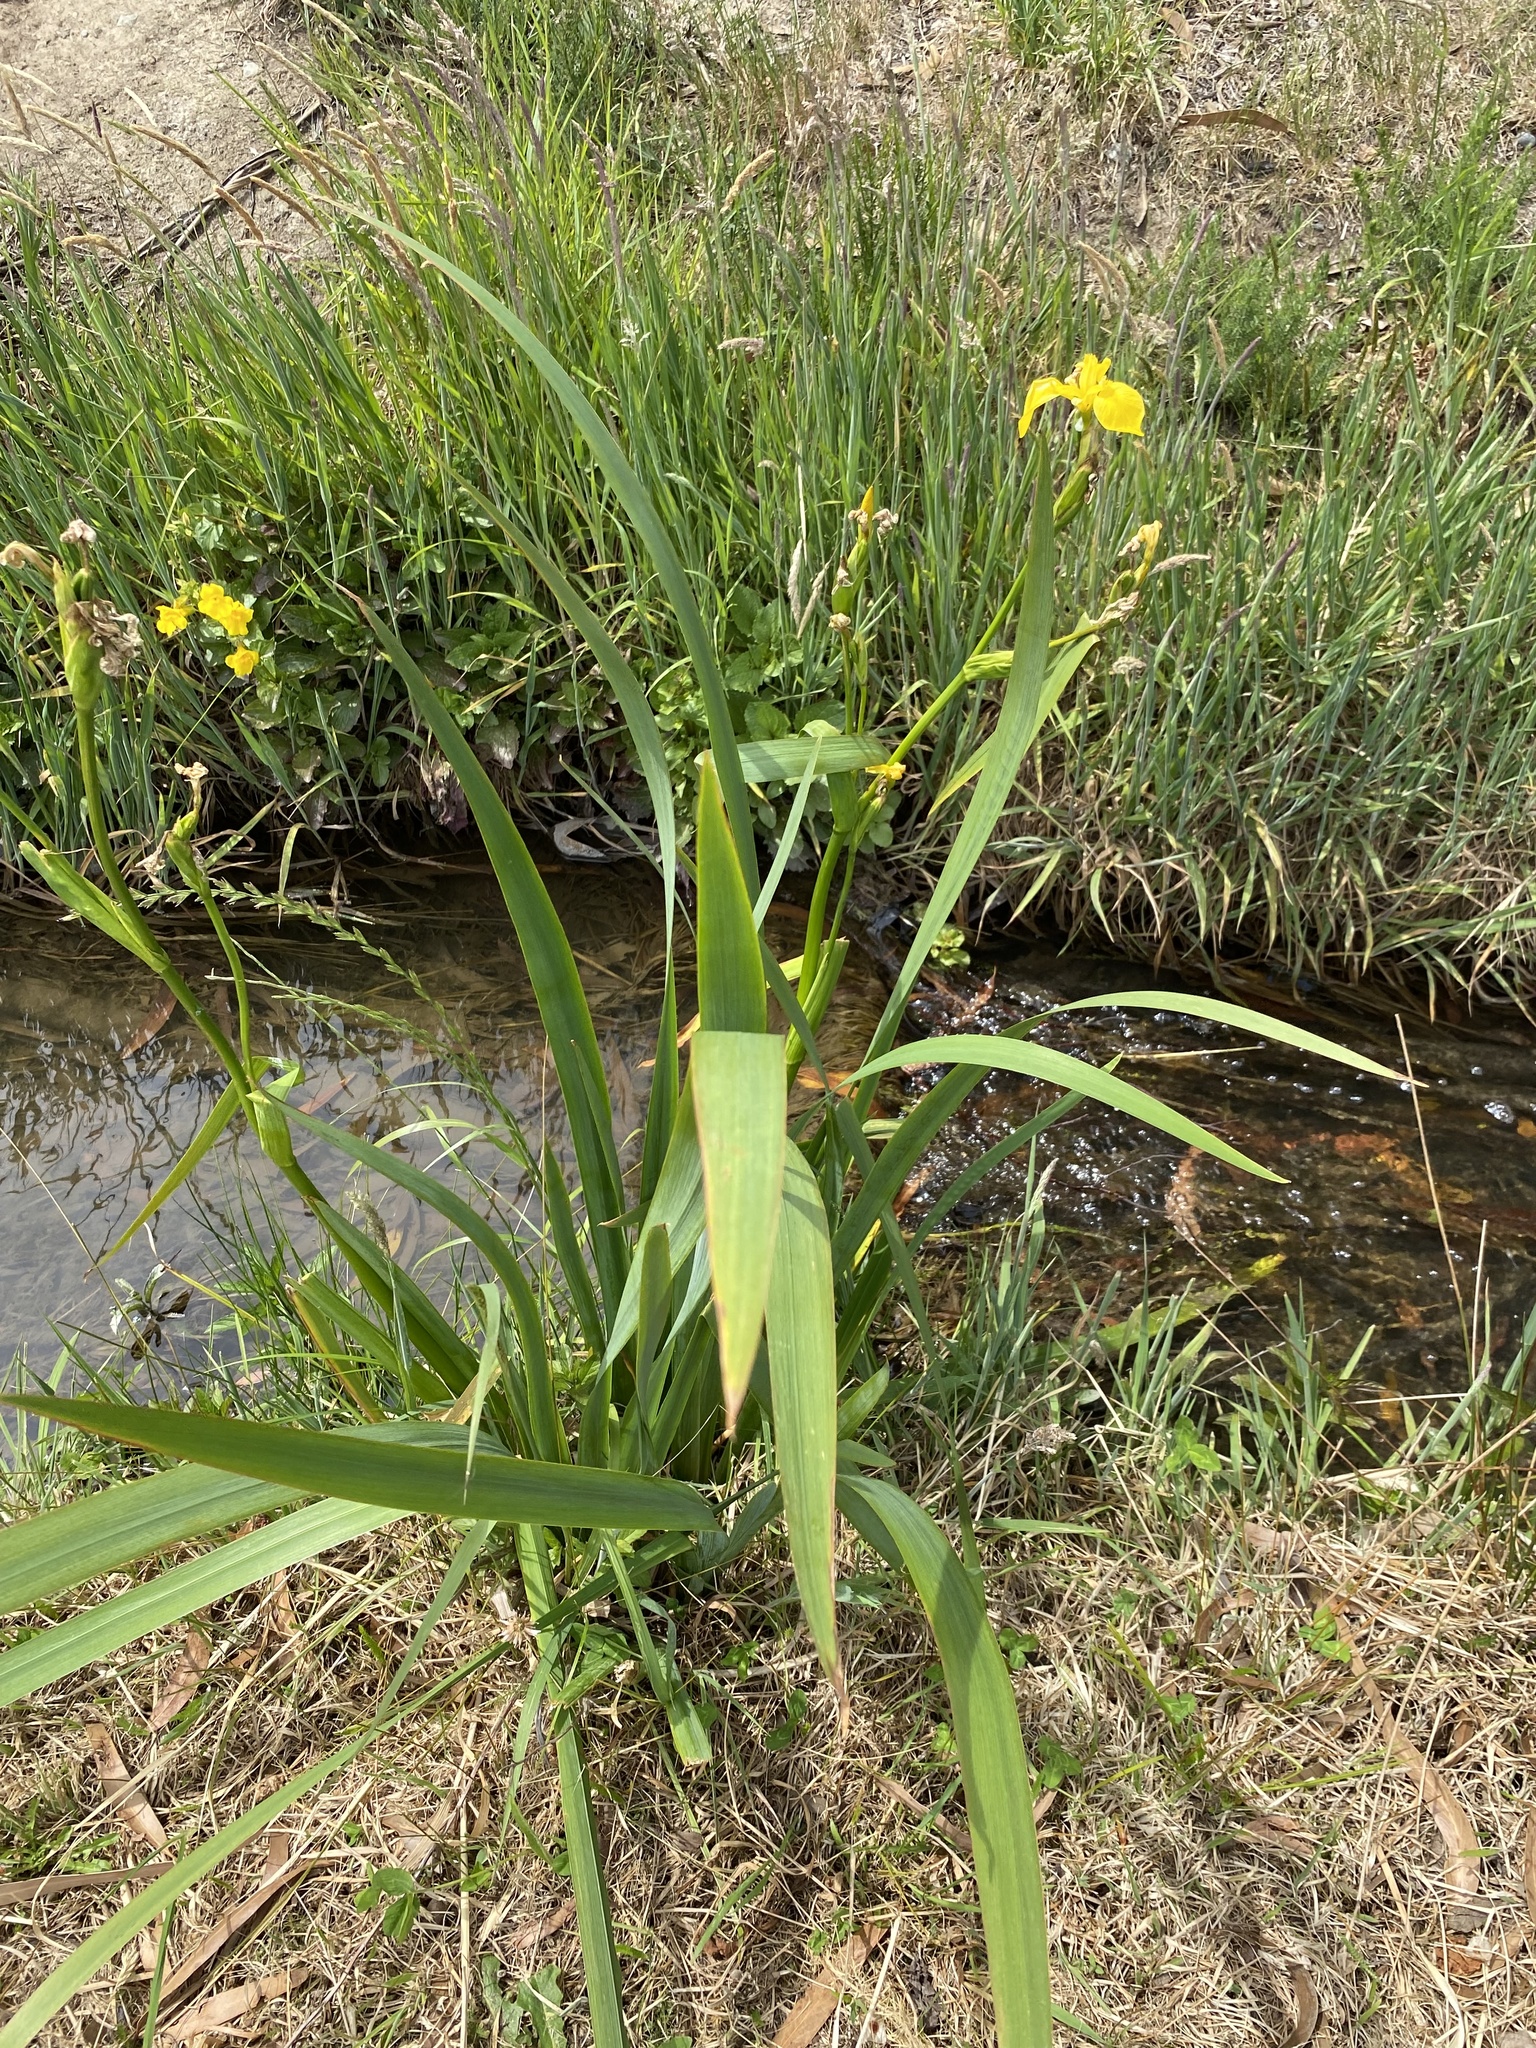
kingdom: Plantae
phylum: Tracheophyta
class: Liliopsida
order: Asparagales
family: Iridaceae
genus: Iris
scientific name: Iris pseudacorus
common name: Yellow flag
